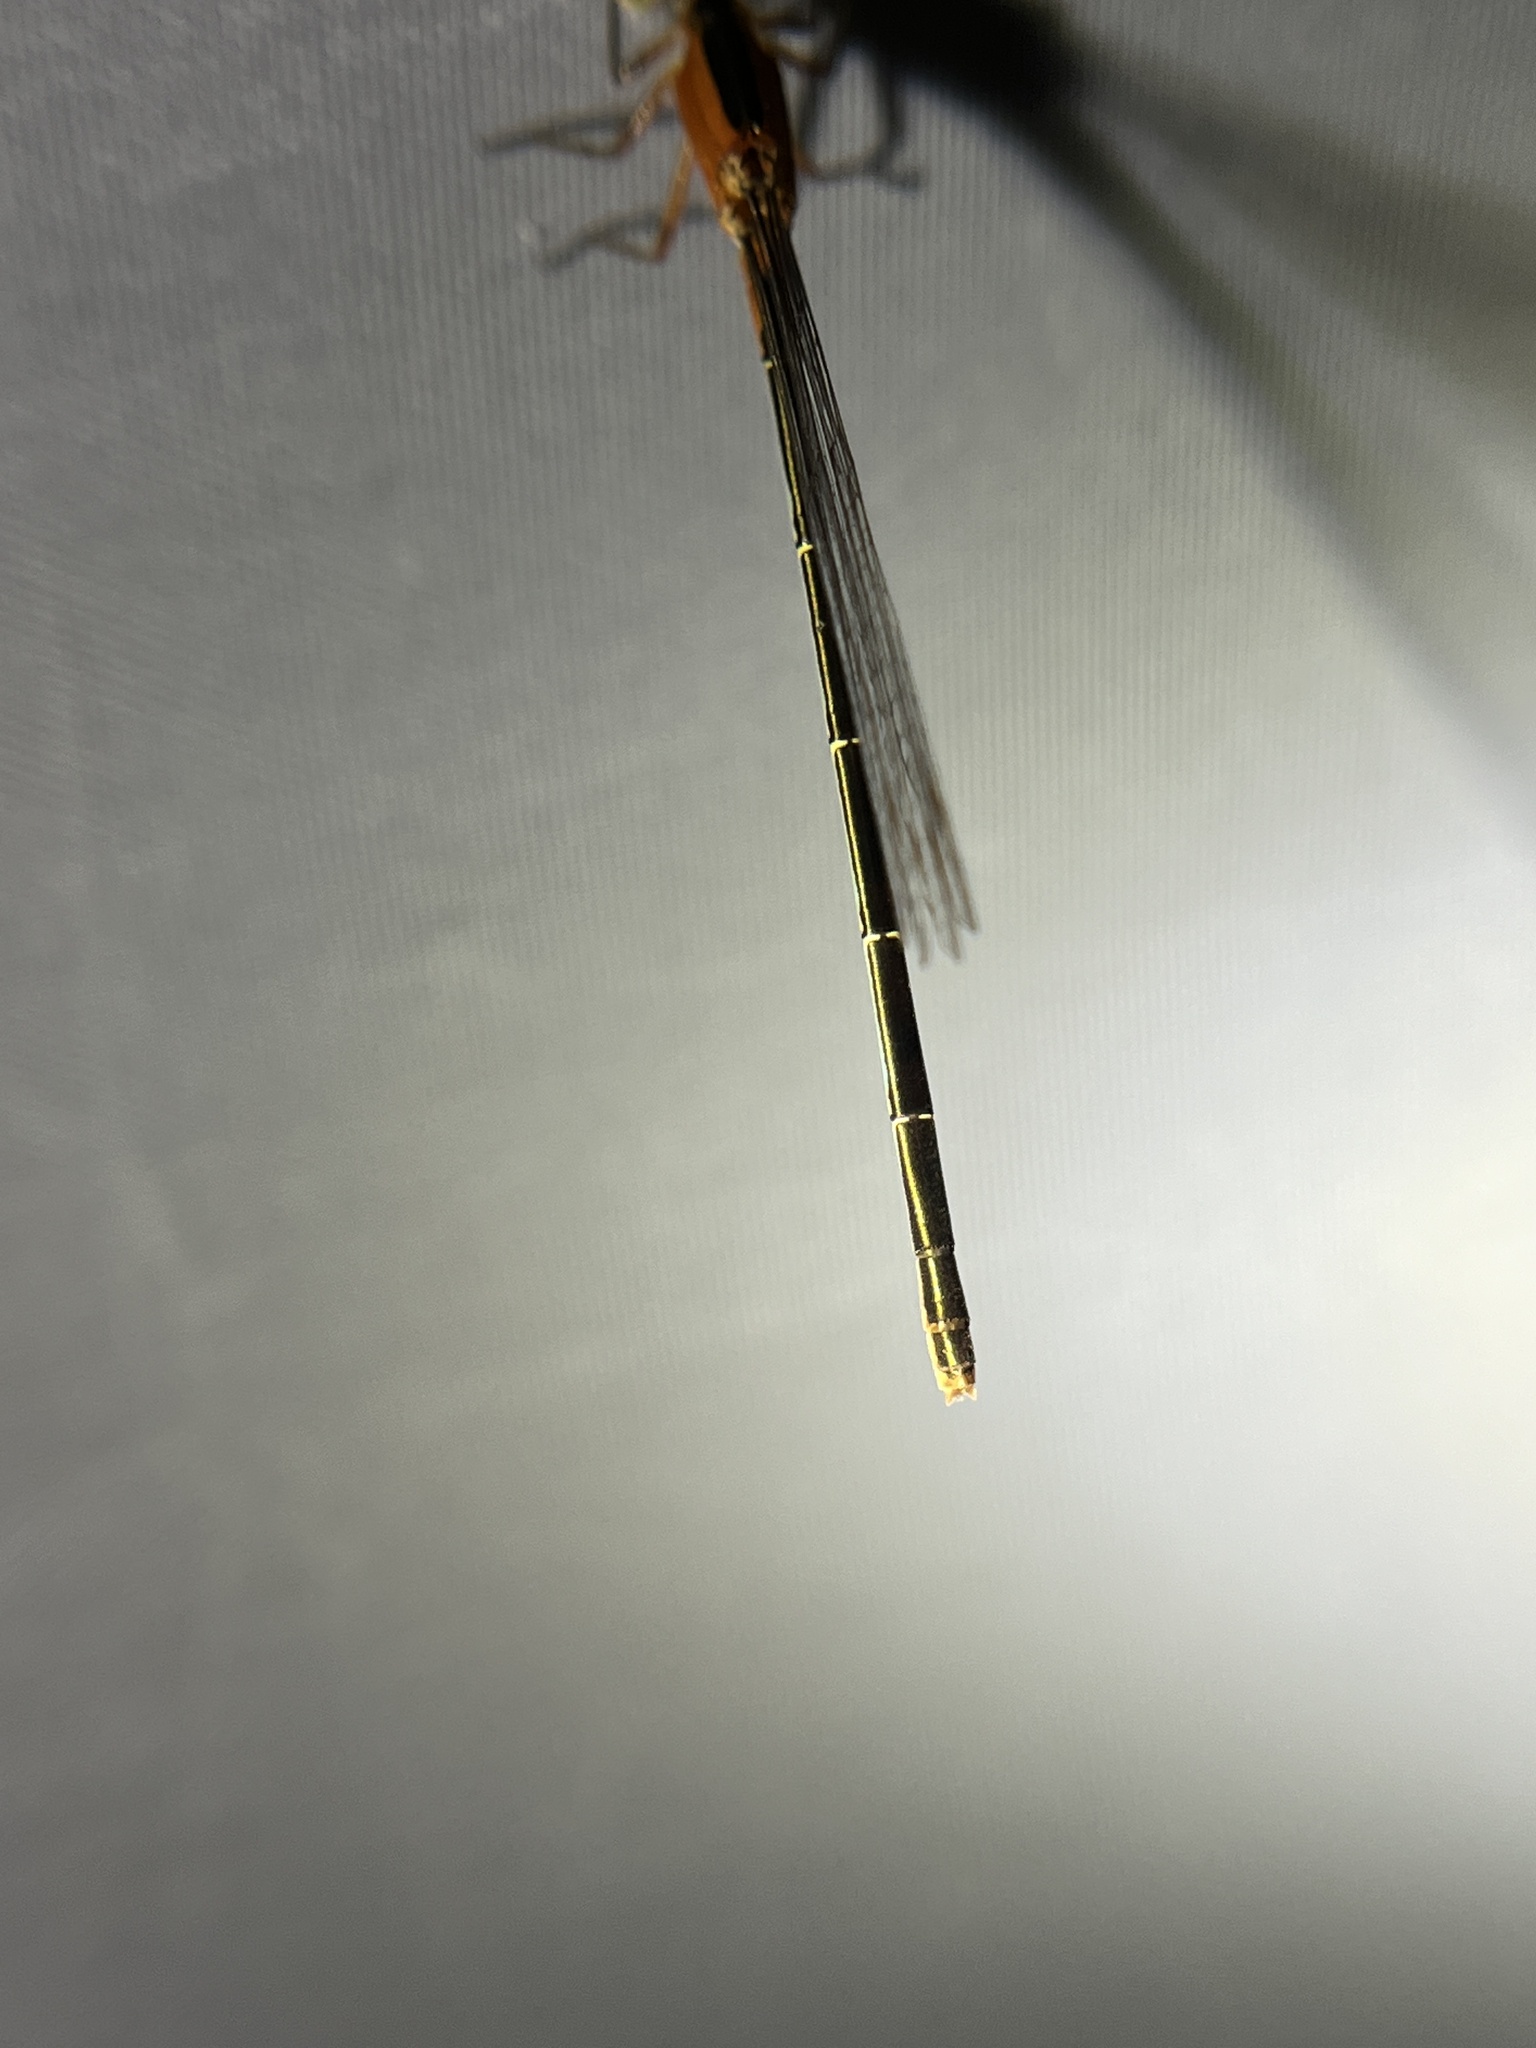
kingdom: Animalia
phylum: Arthropoda
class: Insecta
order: Odonata
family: Coenagrionidae
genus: Ischnura
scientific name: Ischnura ramburii
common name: Rambur's forktail
